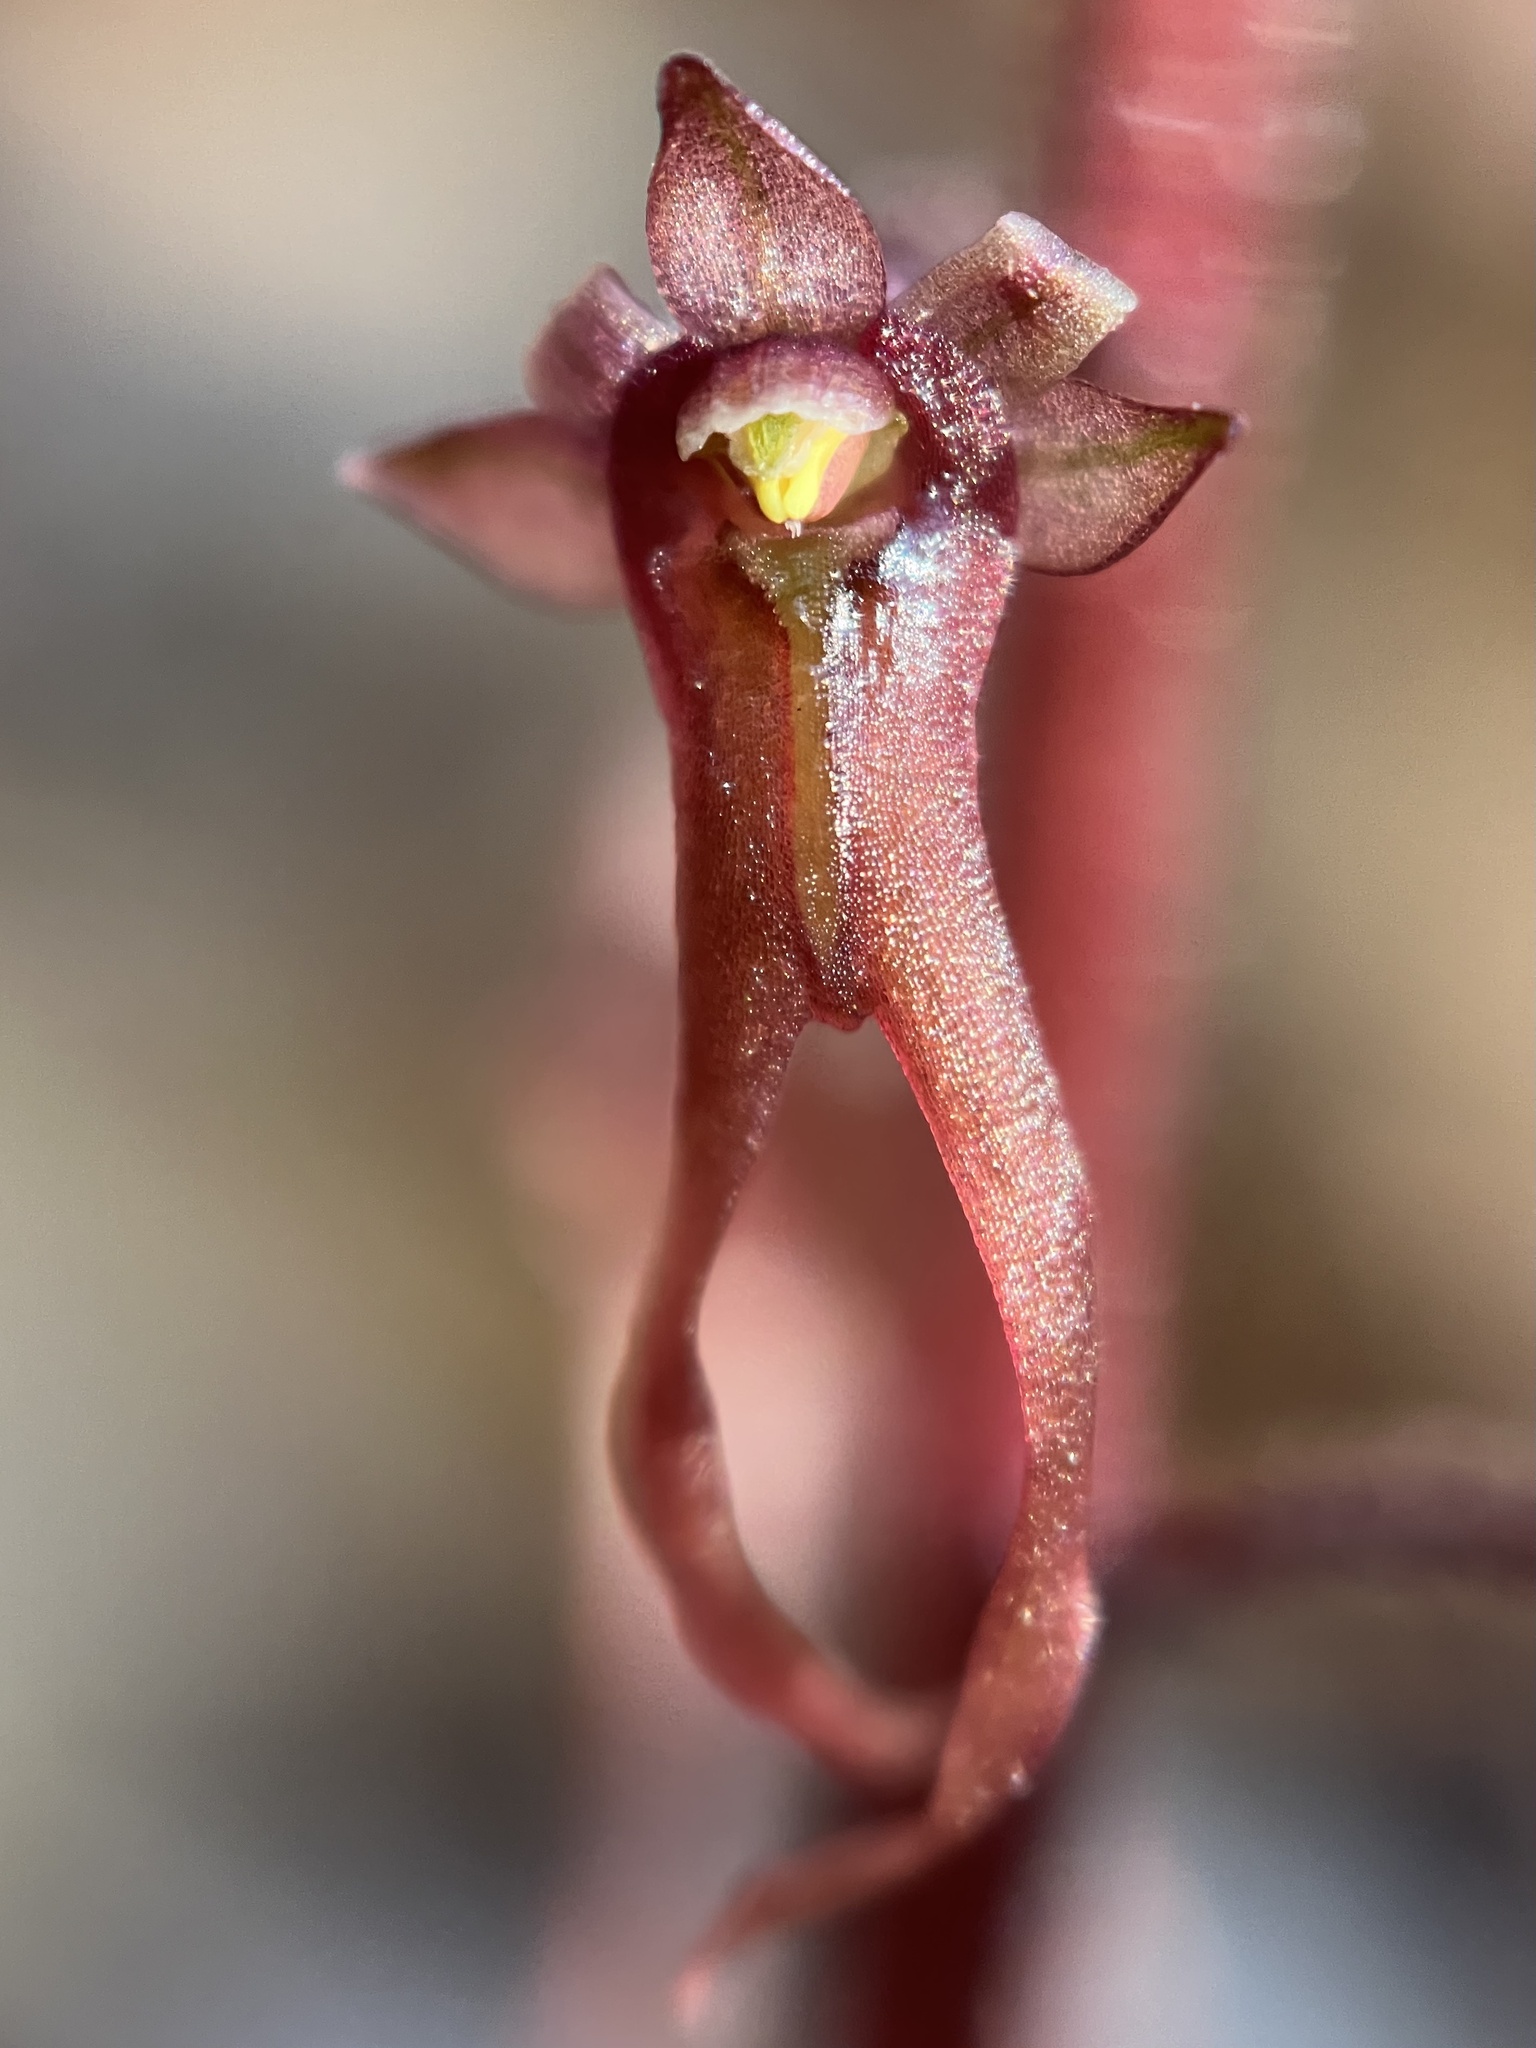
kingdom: Plantae
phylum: Tracheophyta
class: Liliopsida
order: Asparagales
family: Orchidaceae
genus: Neottia
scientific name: Neottia bifolia
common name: Southern twayblade
